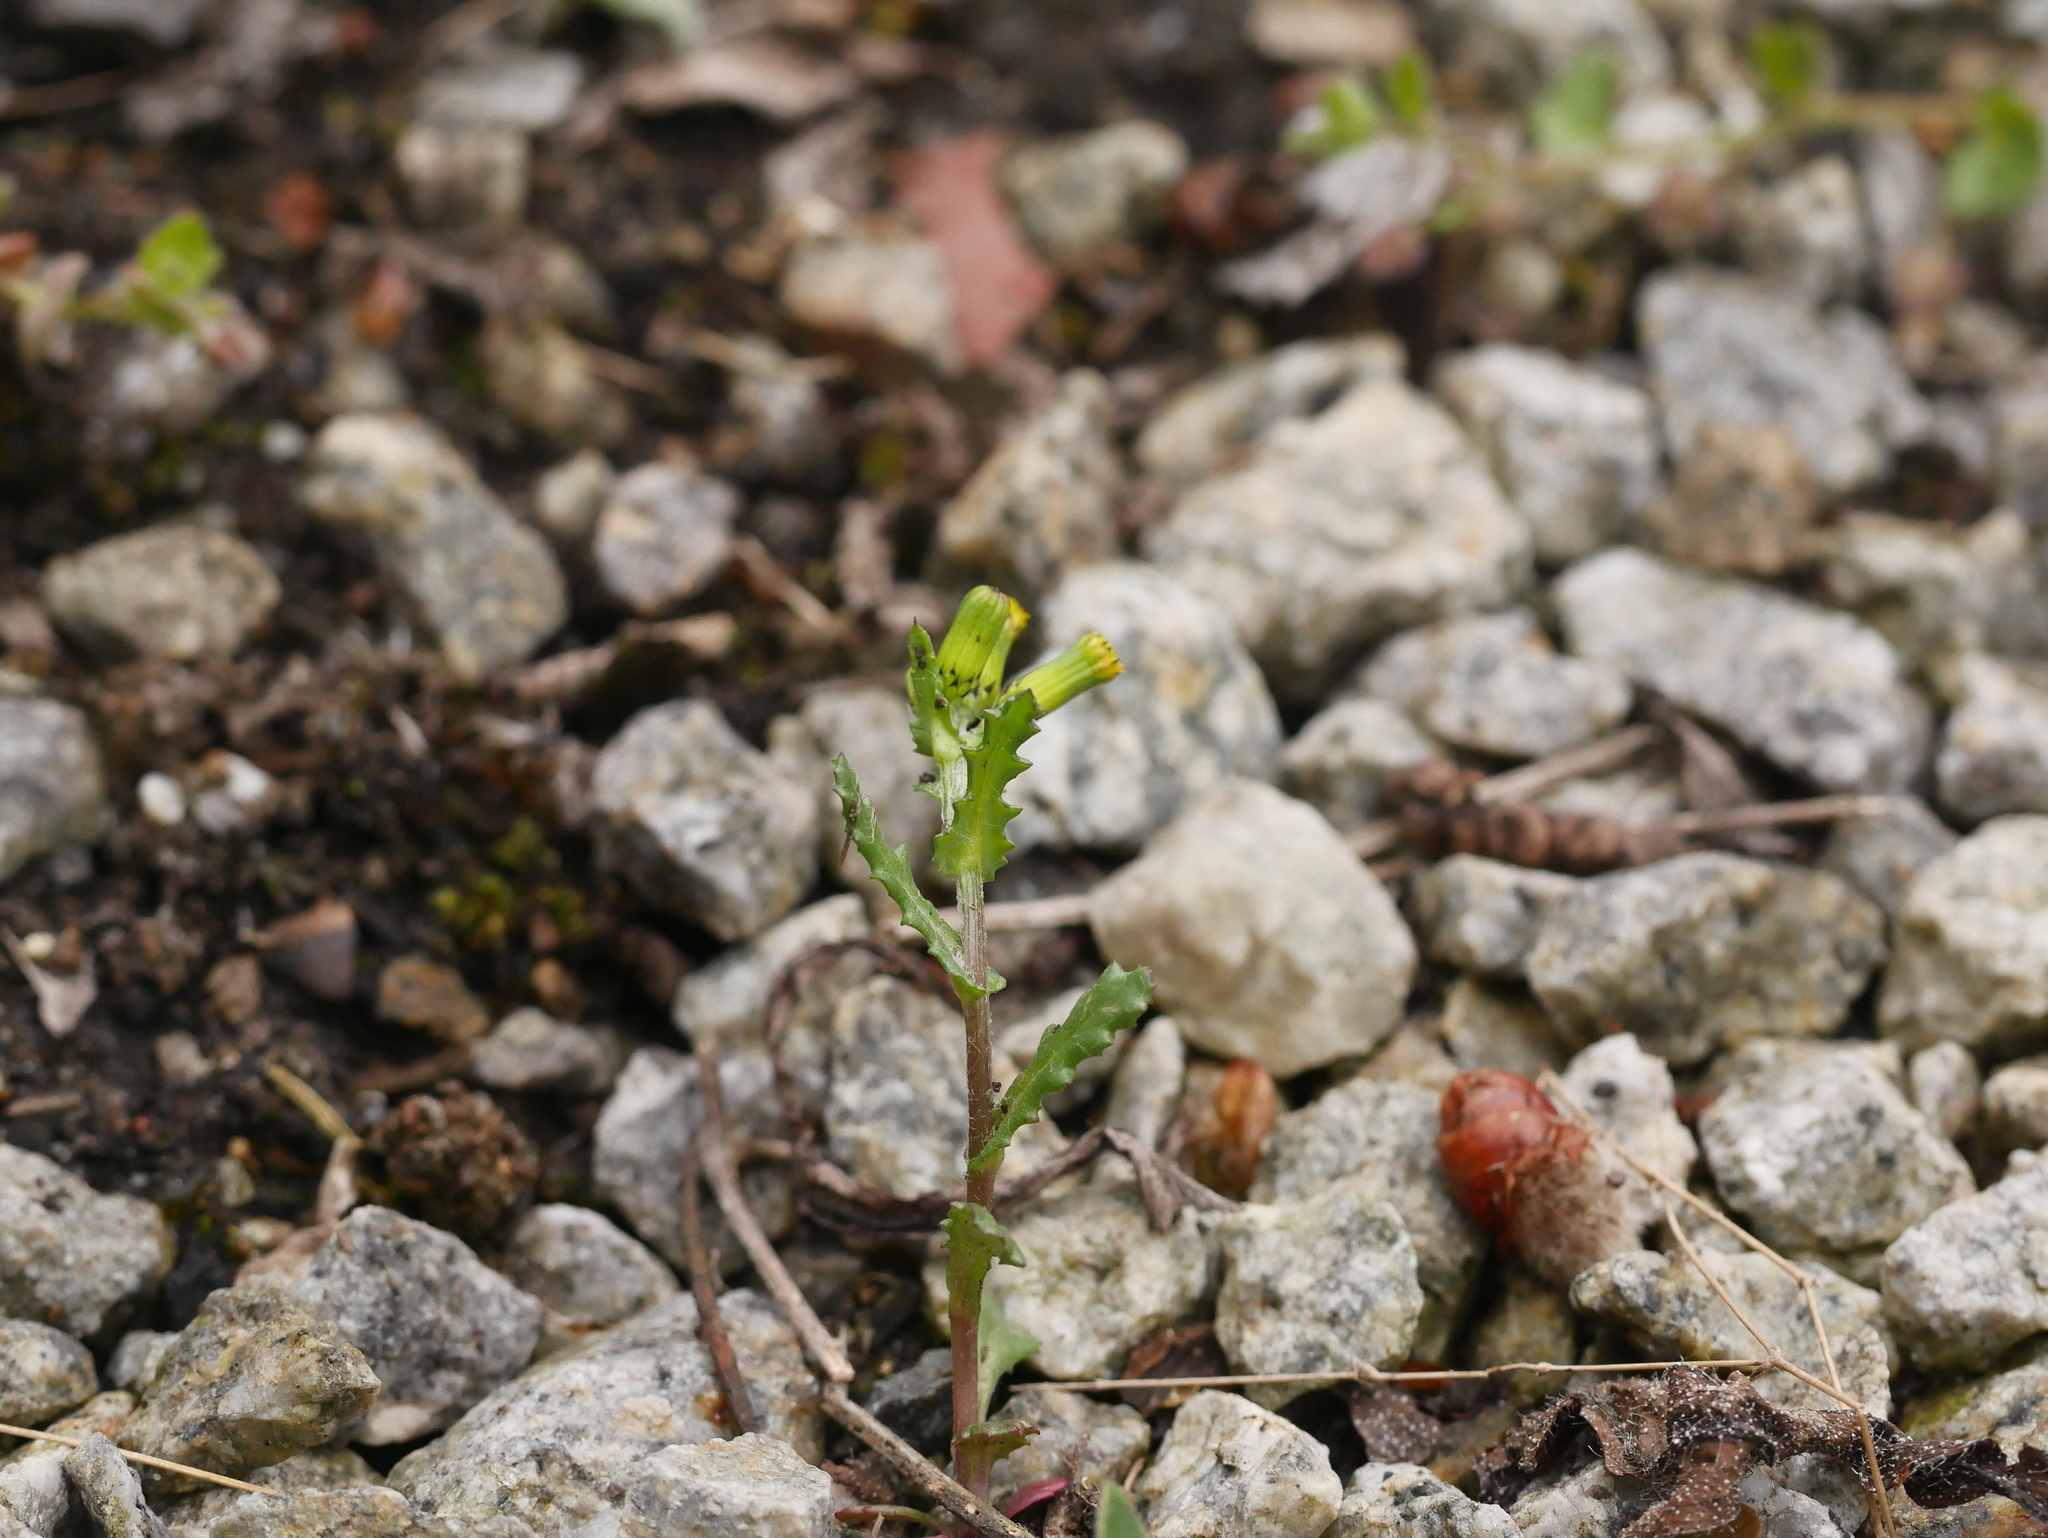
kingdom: Plantae
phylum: Tracheophyta
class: Magnoliopsida
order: Asterales
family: Asteraceae
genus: Senecio
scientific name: Senecio vulgaris
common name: Old-man-in-the-spring
